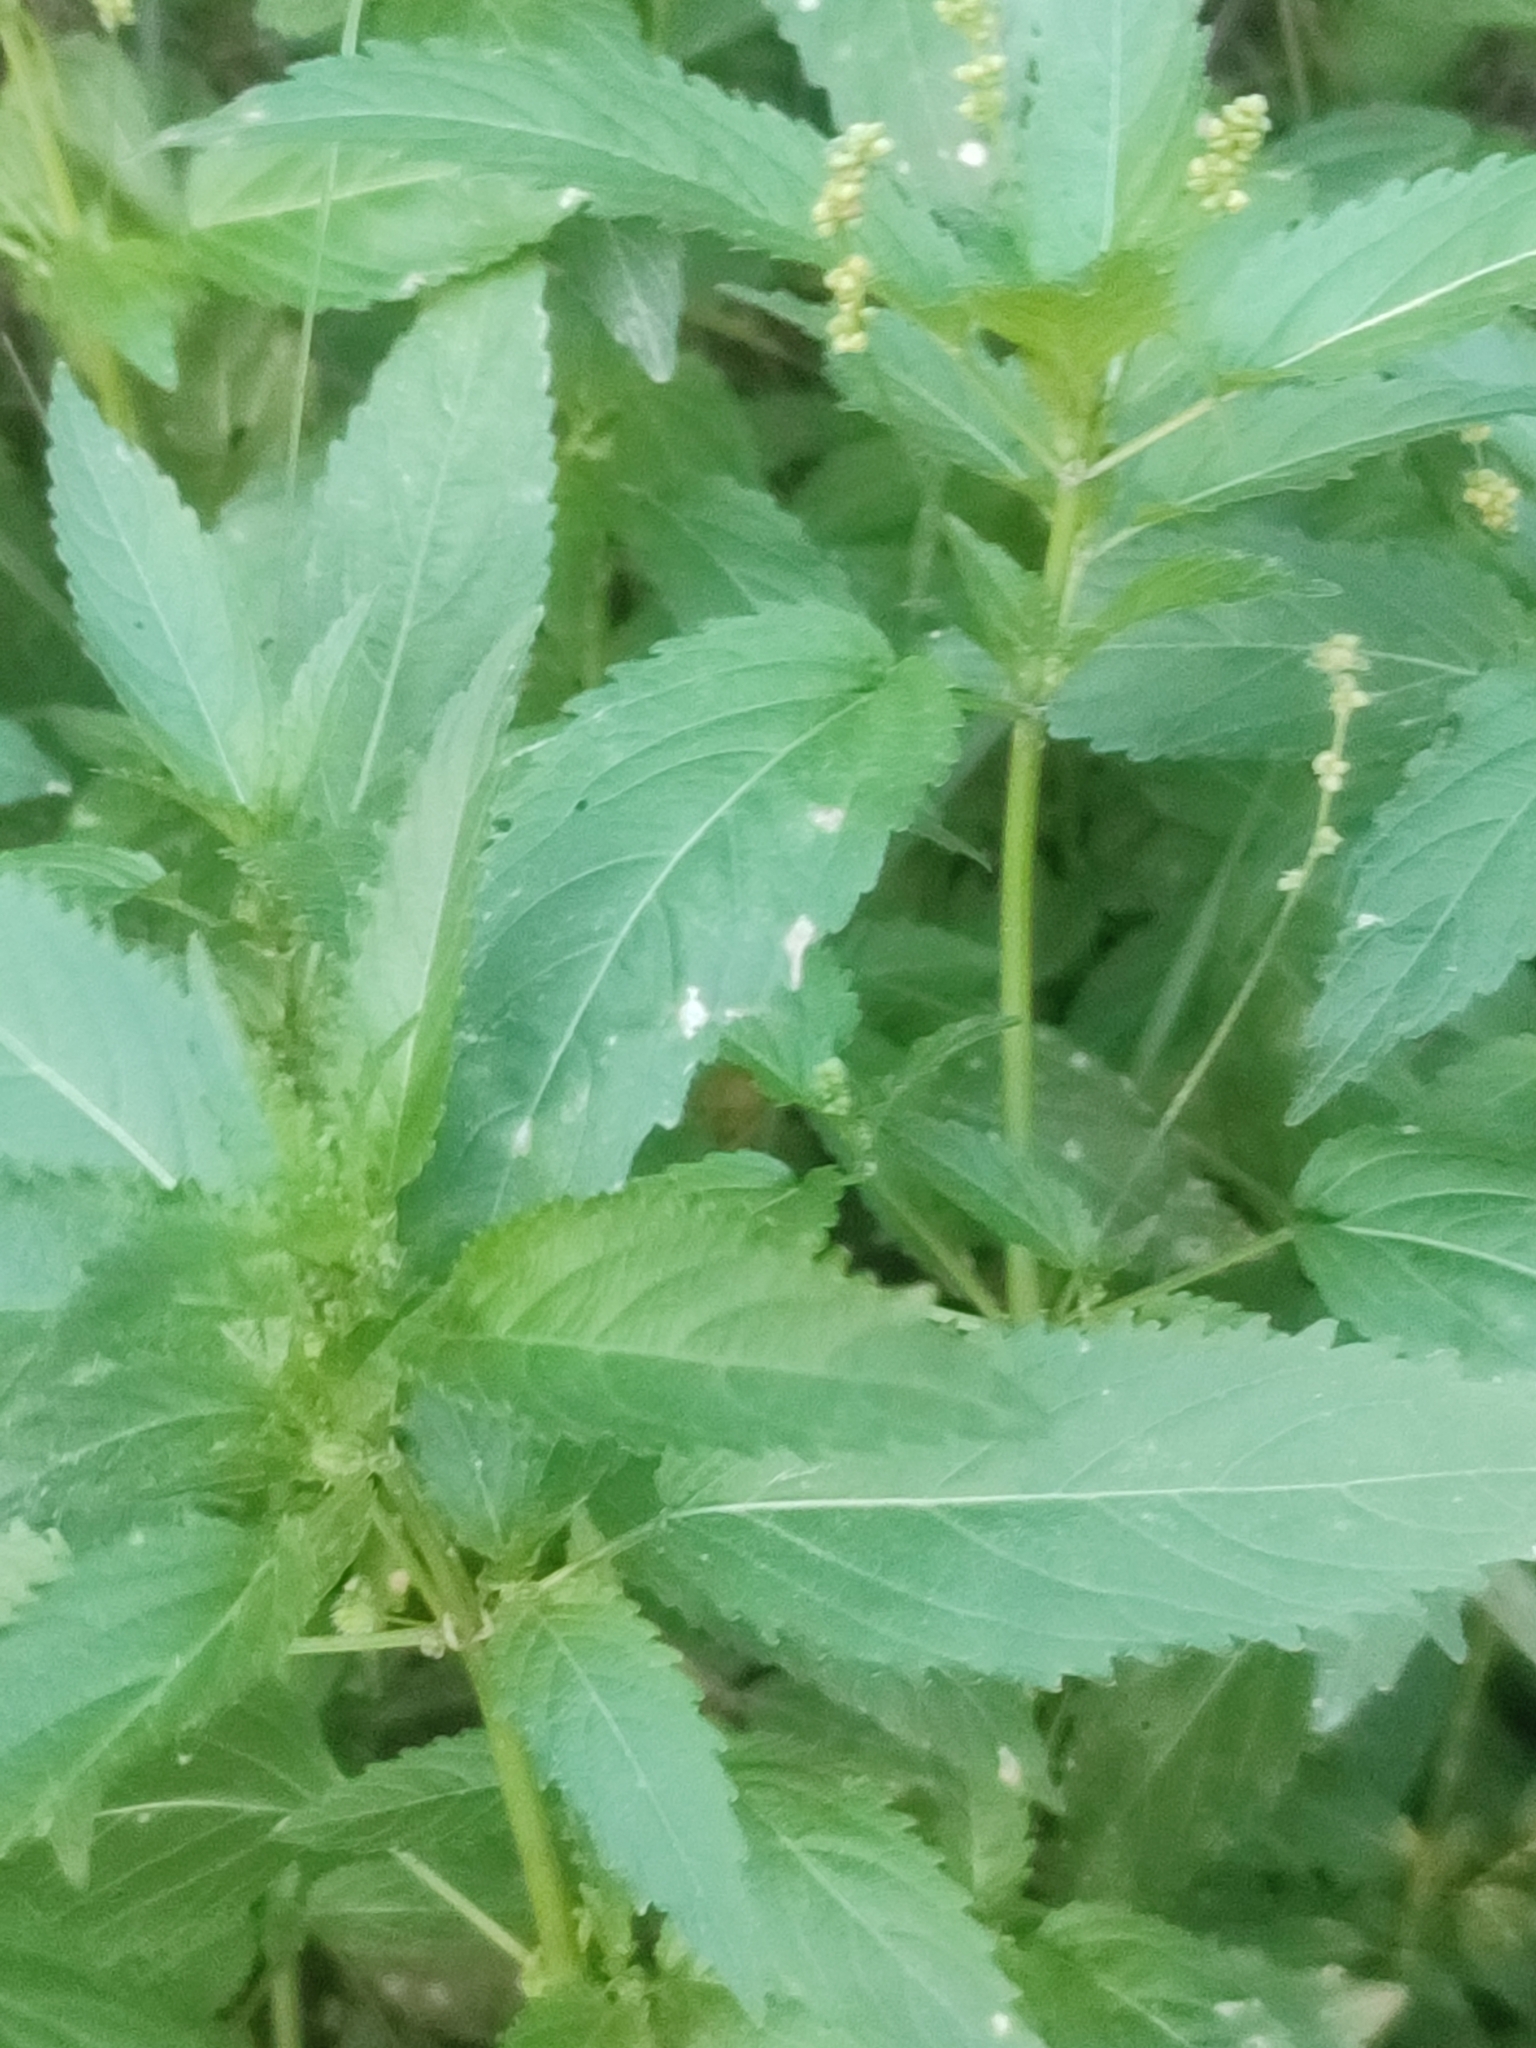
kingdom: Plantae
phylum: Tracheophyta
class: Magnoliopsida
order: Malpighiales
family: Euphorbiaceae
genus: Mercurialis
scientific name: Mercurialis annua
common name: Annual mercury
